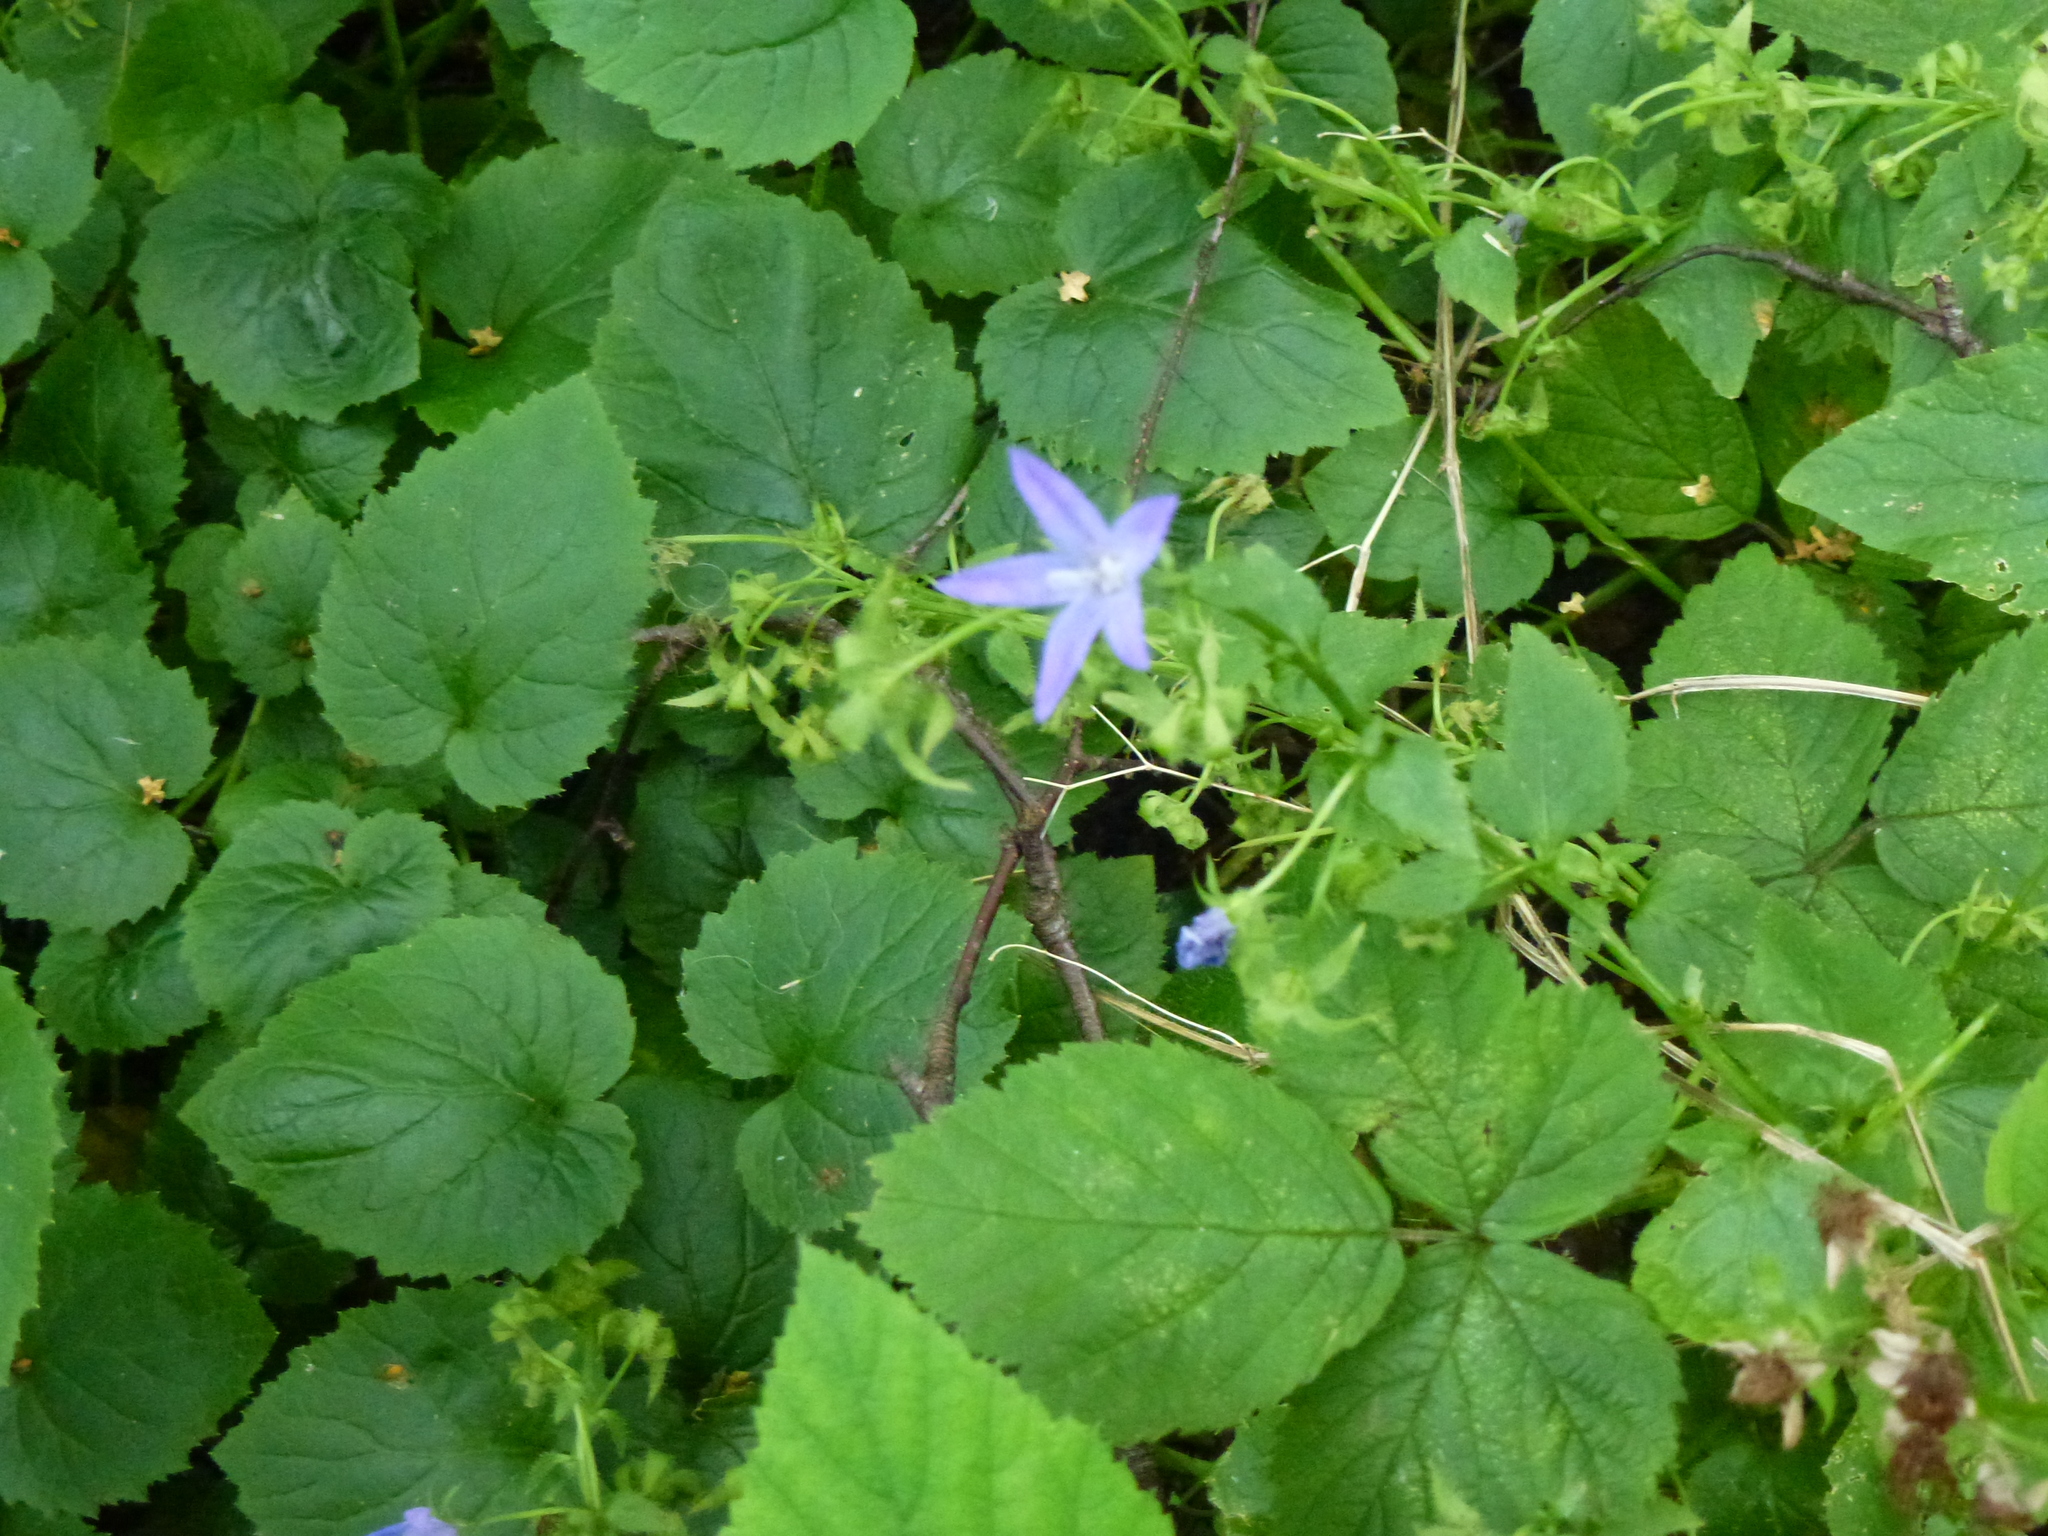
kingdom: Plantae
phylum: Tracheophyta
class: Magnoliopsida
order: Asterales
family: Campanulaceae
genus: Campanula
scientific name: Campanula poscharskyana
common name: Trailing bellflower
